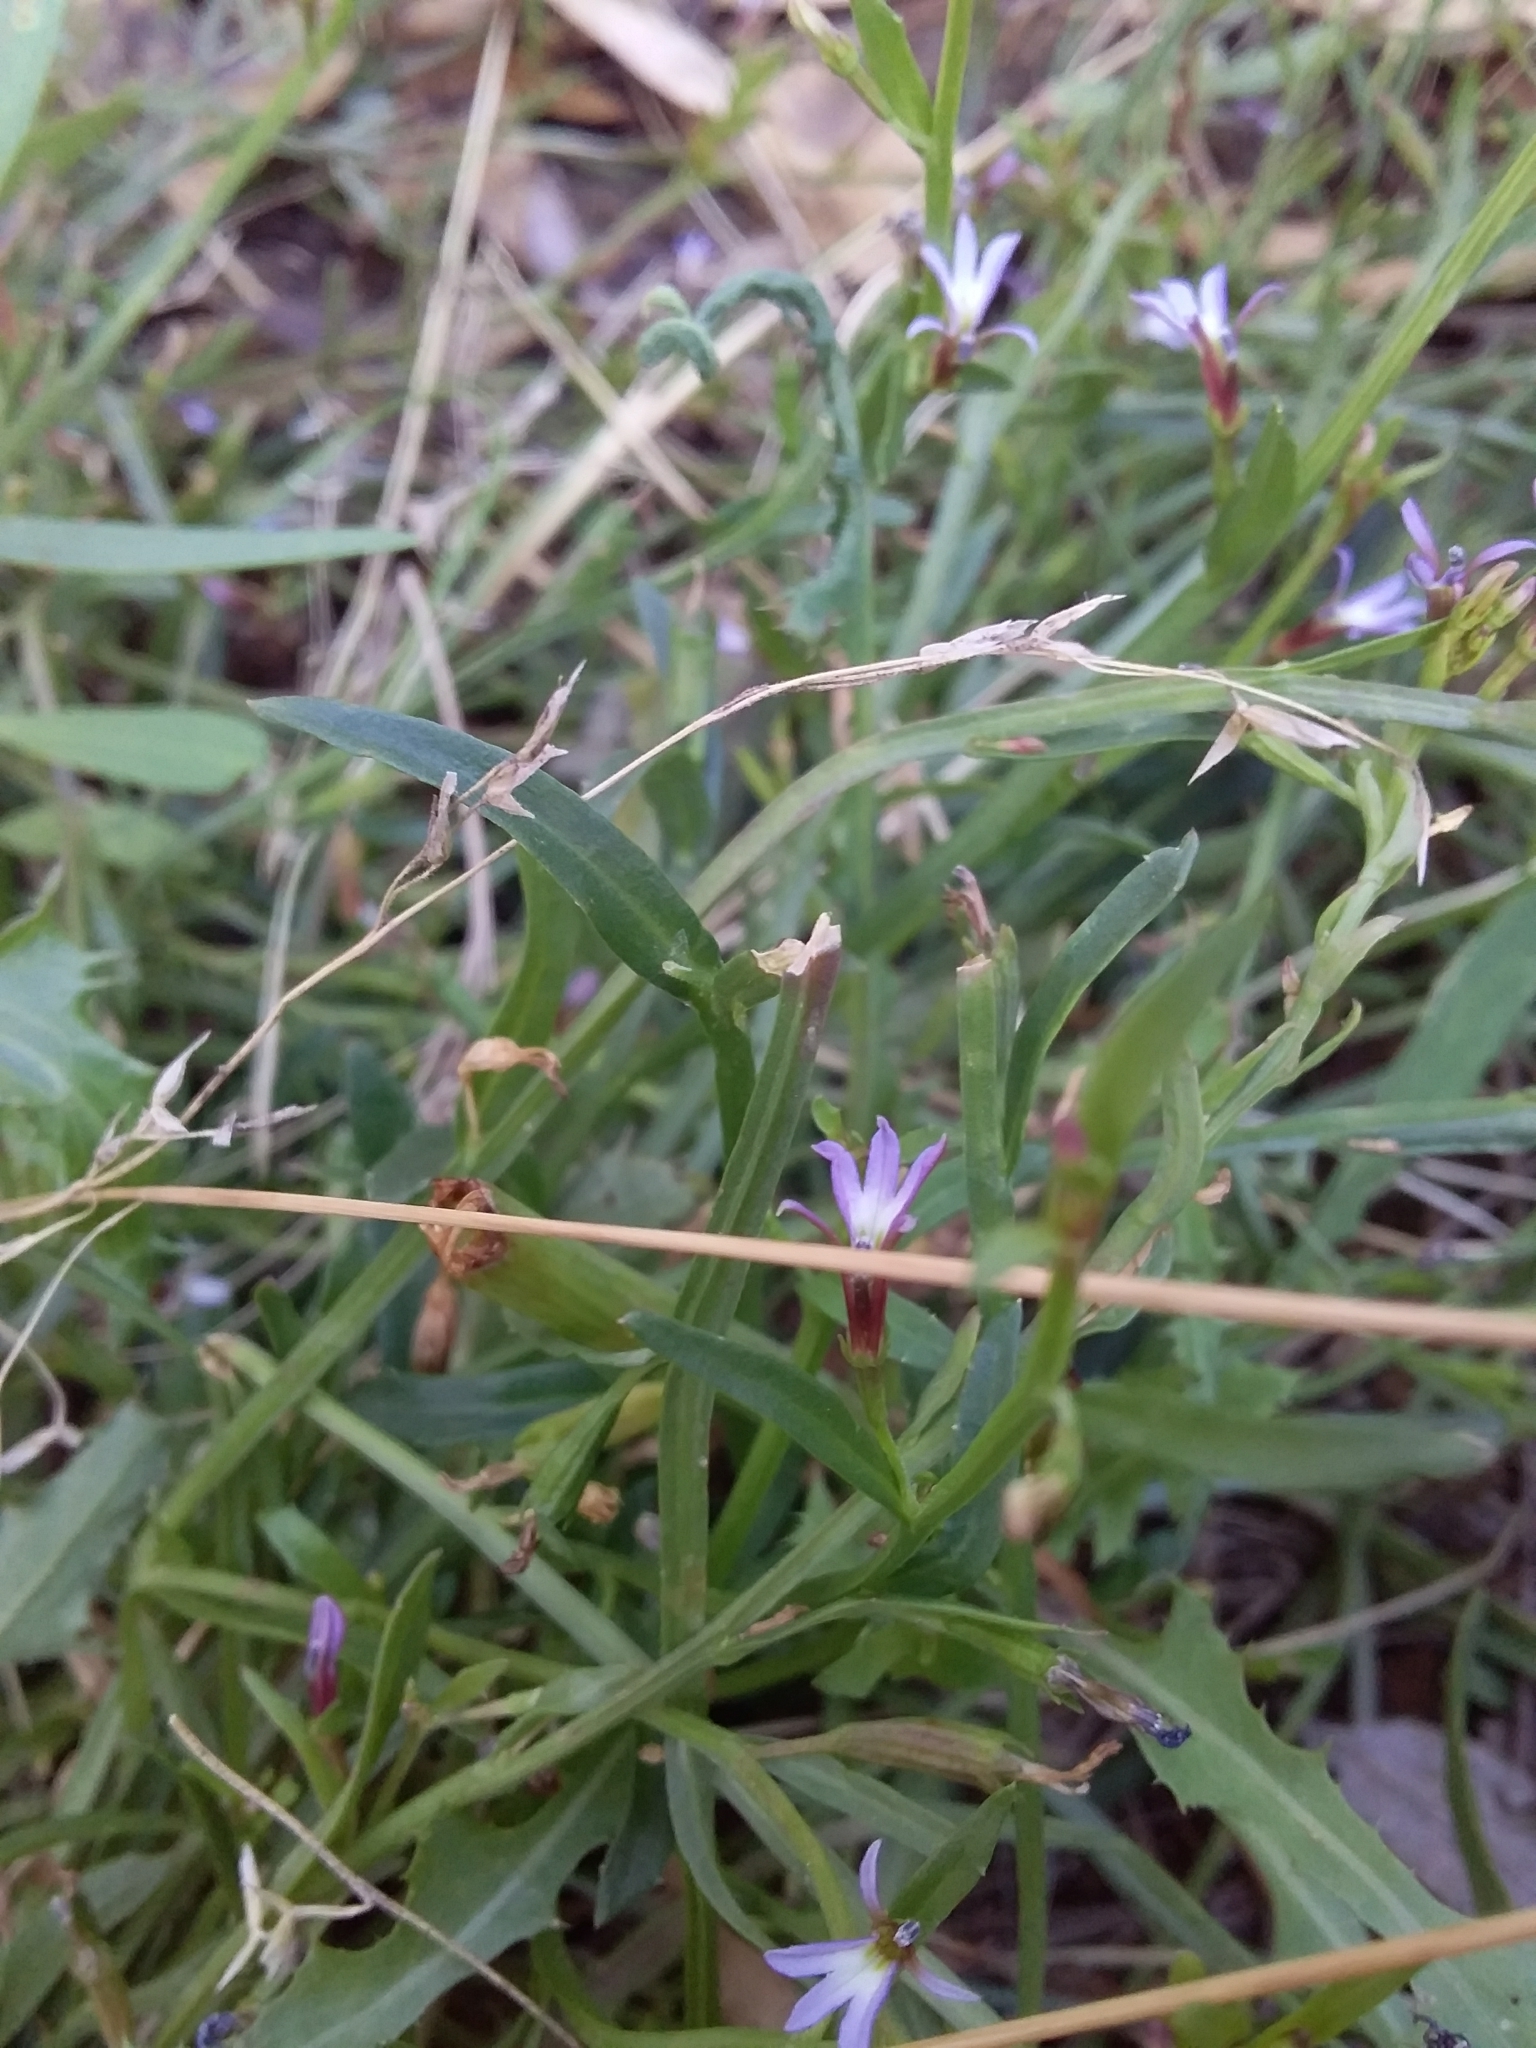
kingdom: Plantae
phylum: Tracheophyta
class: Magnoliopsida
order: Asterales
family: Campanulaceae
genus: Lobelia
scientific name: Lobelia anceps
